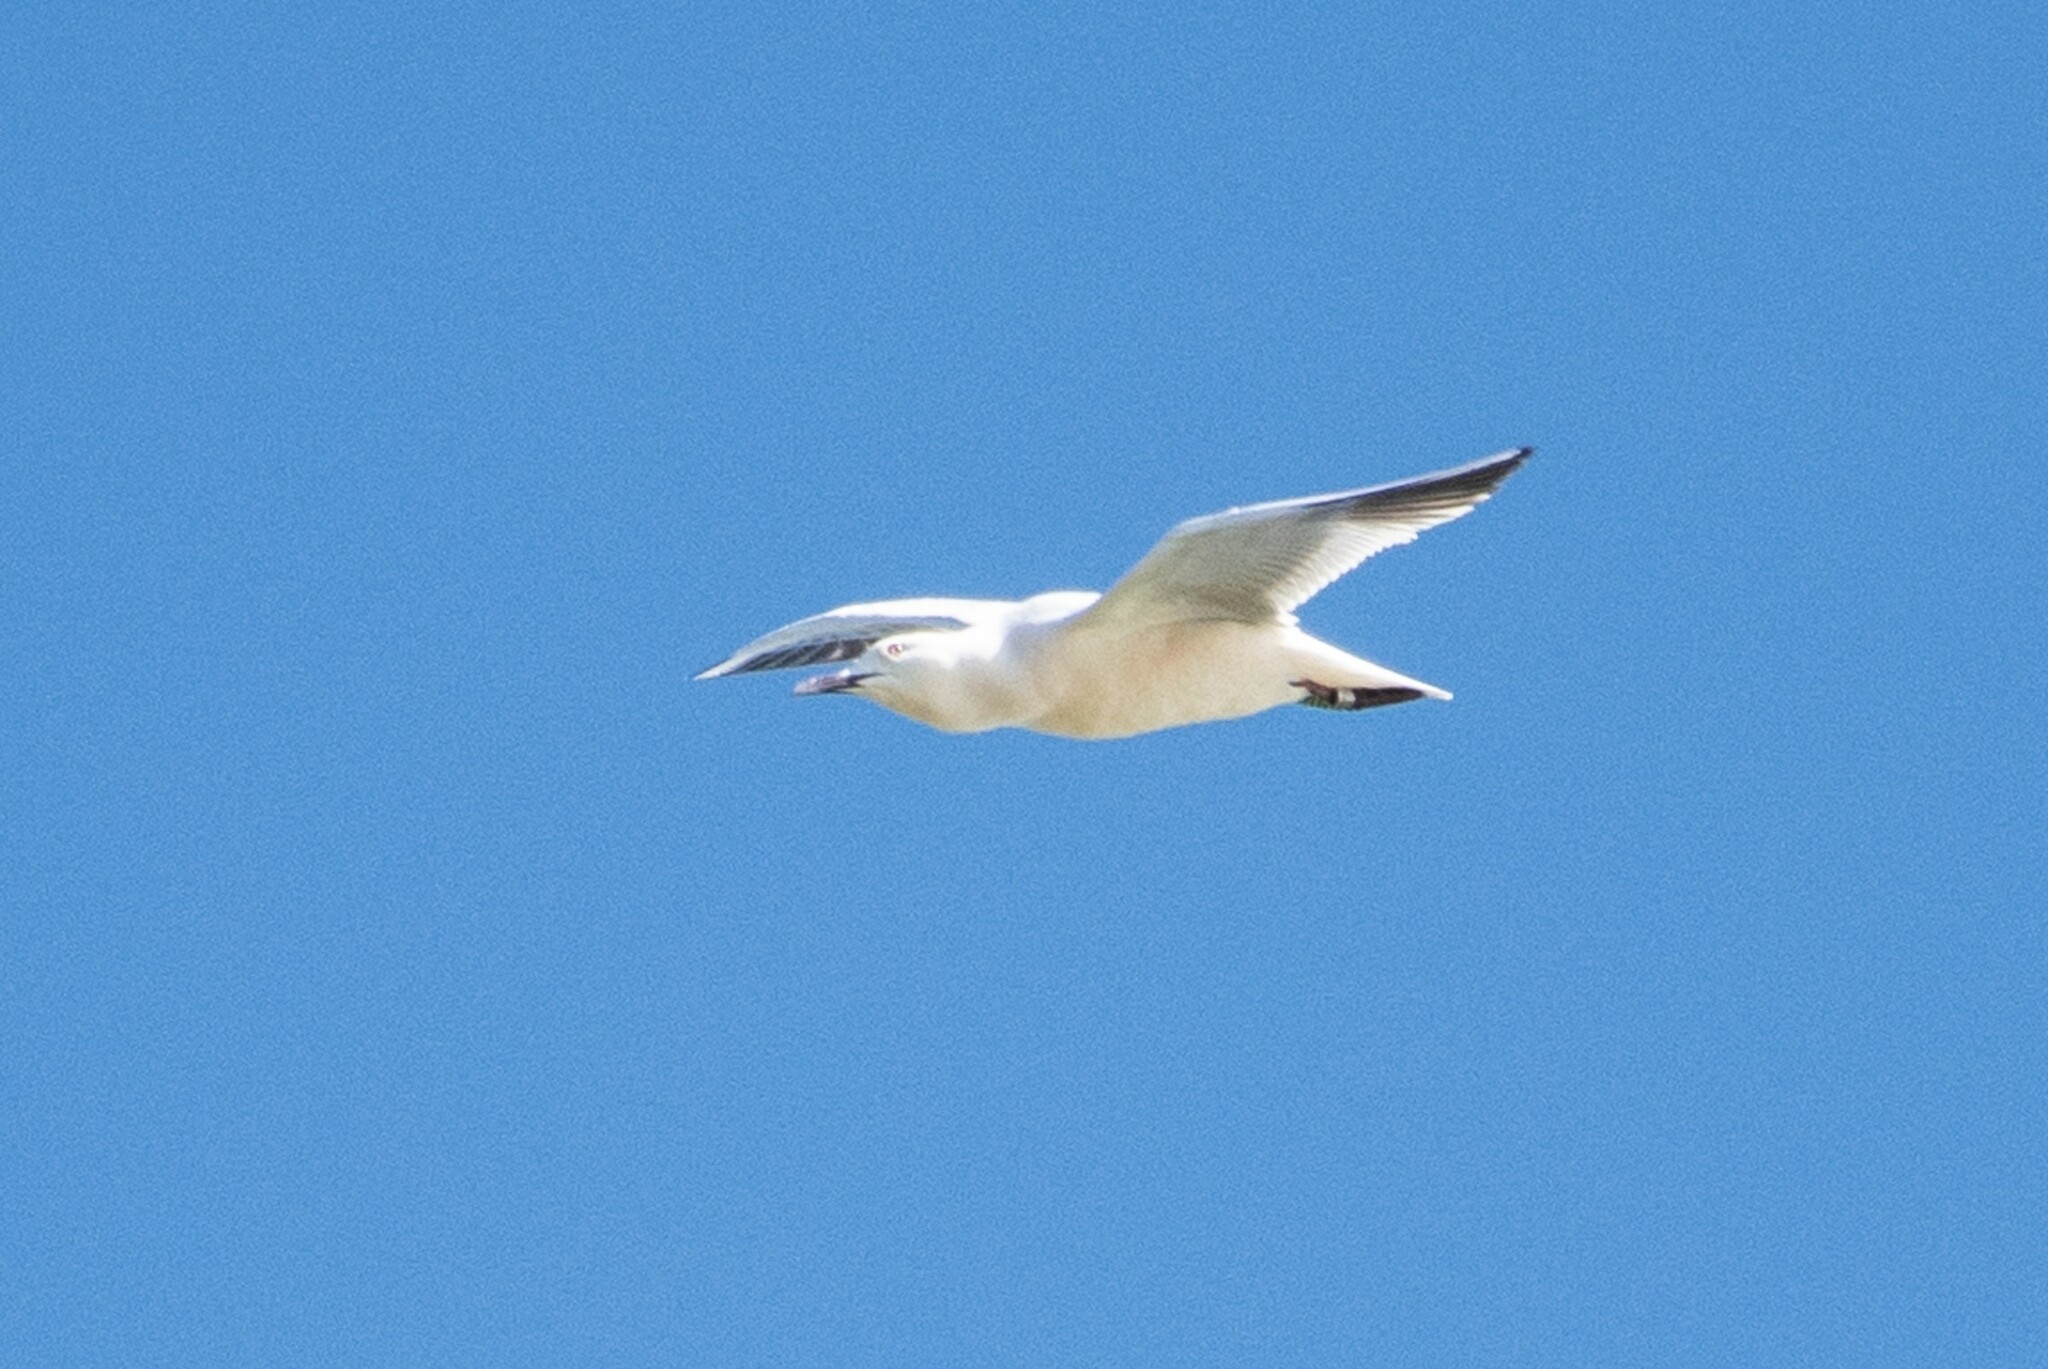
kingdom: Animalia
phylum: Chordata
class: Aves
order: Charadriiformes
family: Laridae
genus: Chroicocephalus
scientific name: Chroicocephalus genei
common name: Slender-billed gull
